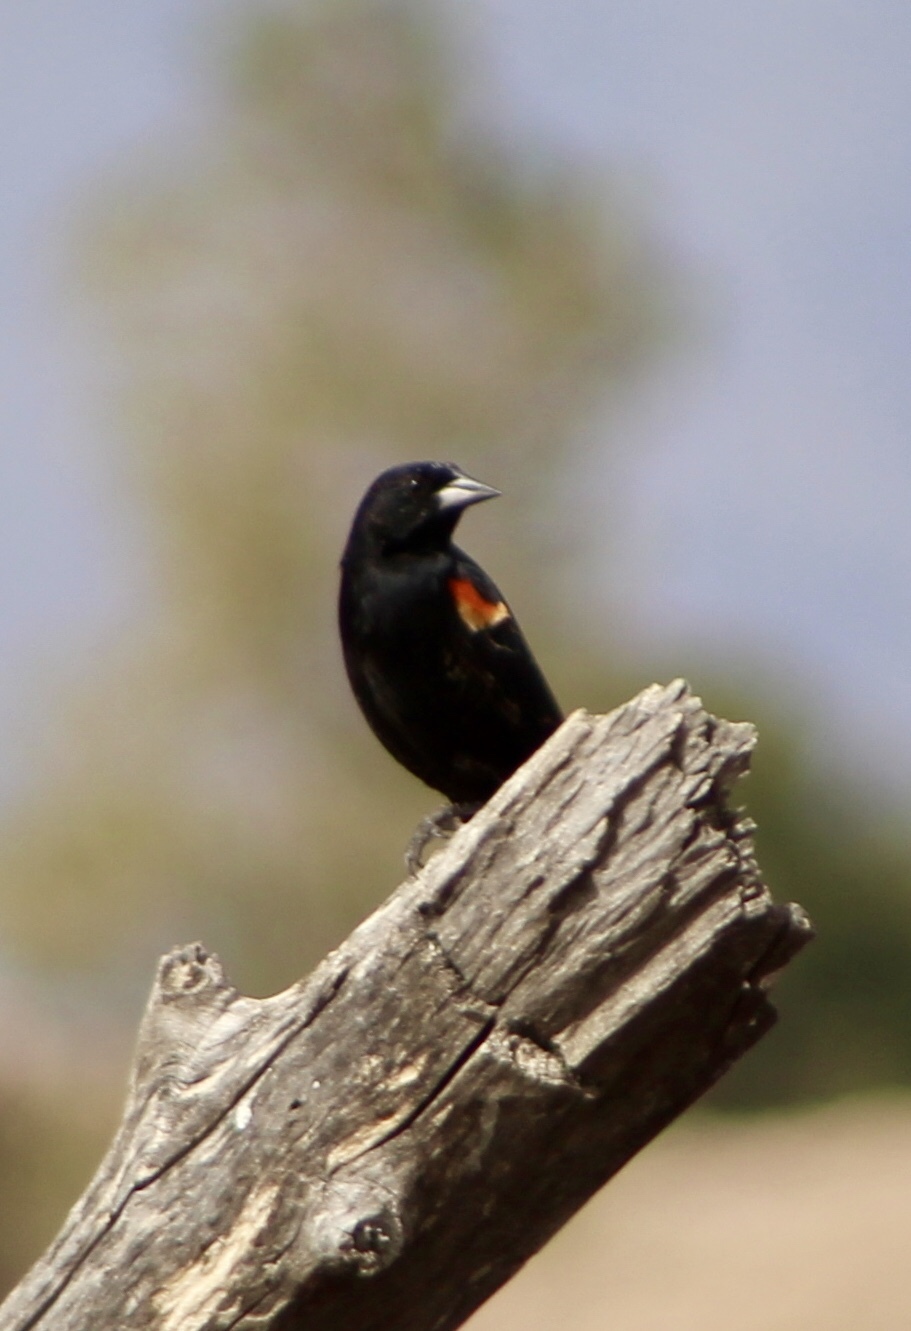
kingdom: Animalia
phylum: Chordata
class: Aves
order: Passeriformes
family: Icteridae
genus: Agelaius
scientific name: Agelaius phoeniceus
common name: Red-winged blackbird
